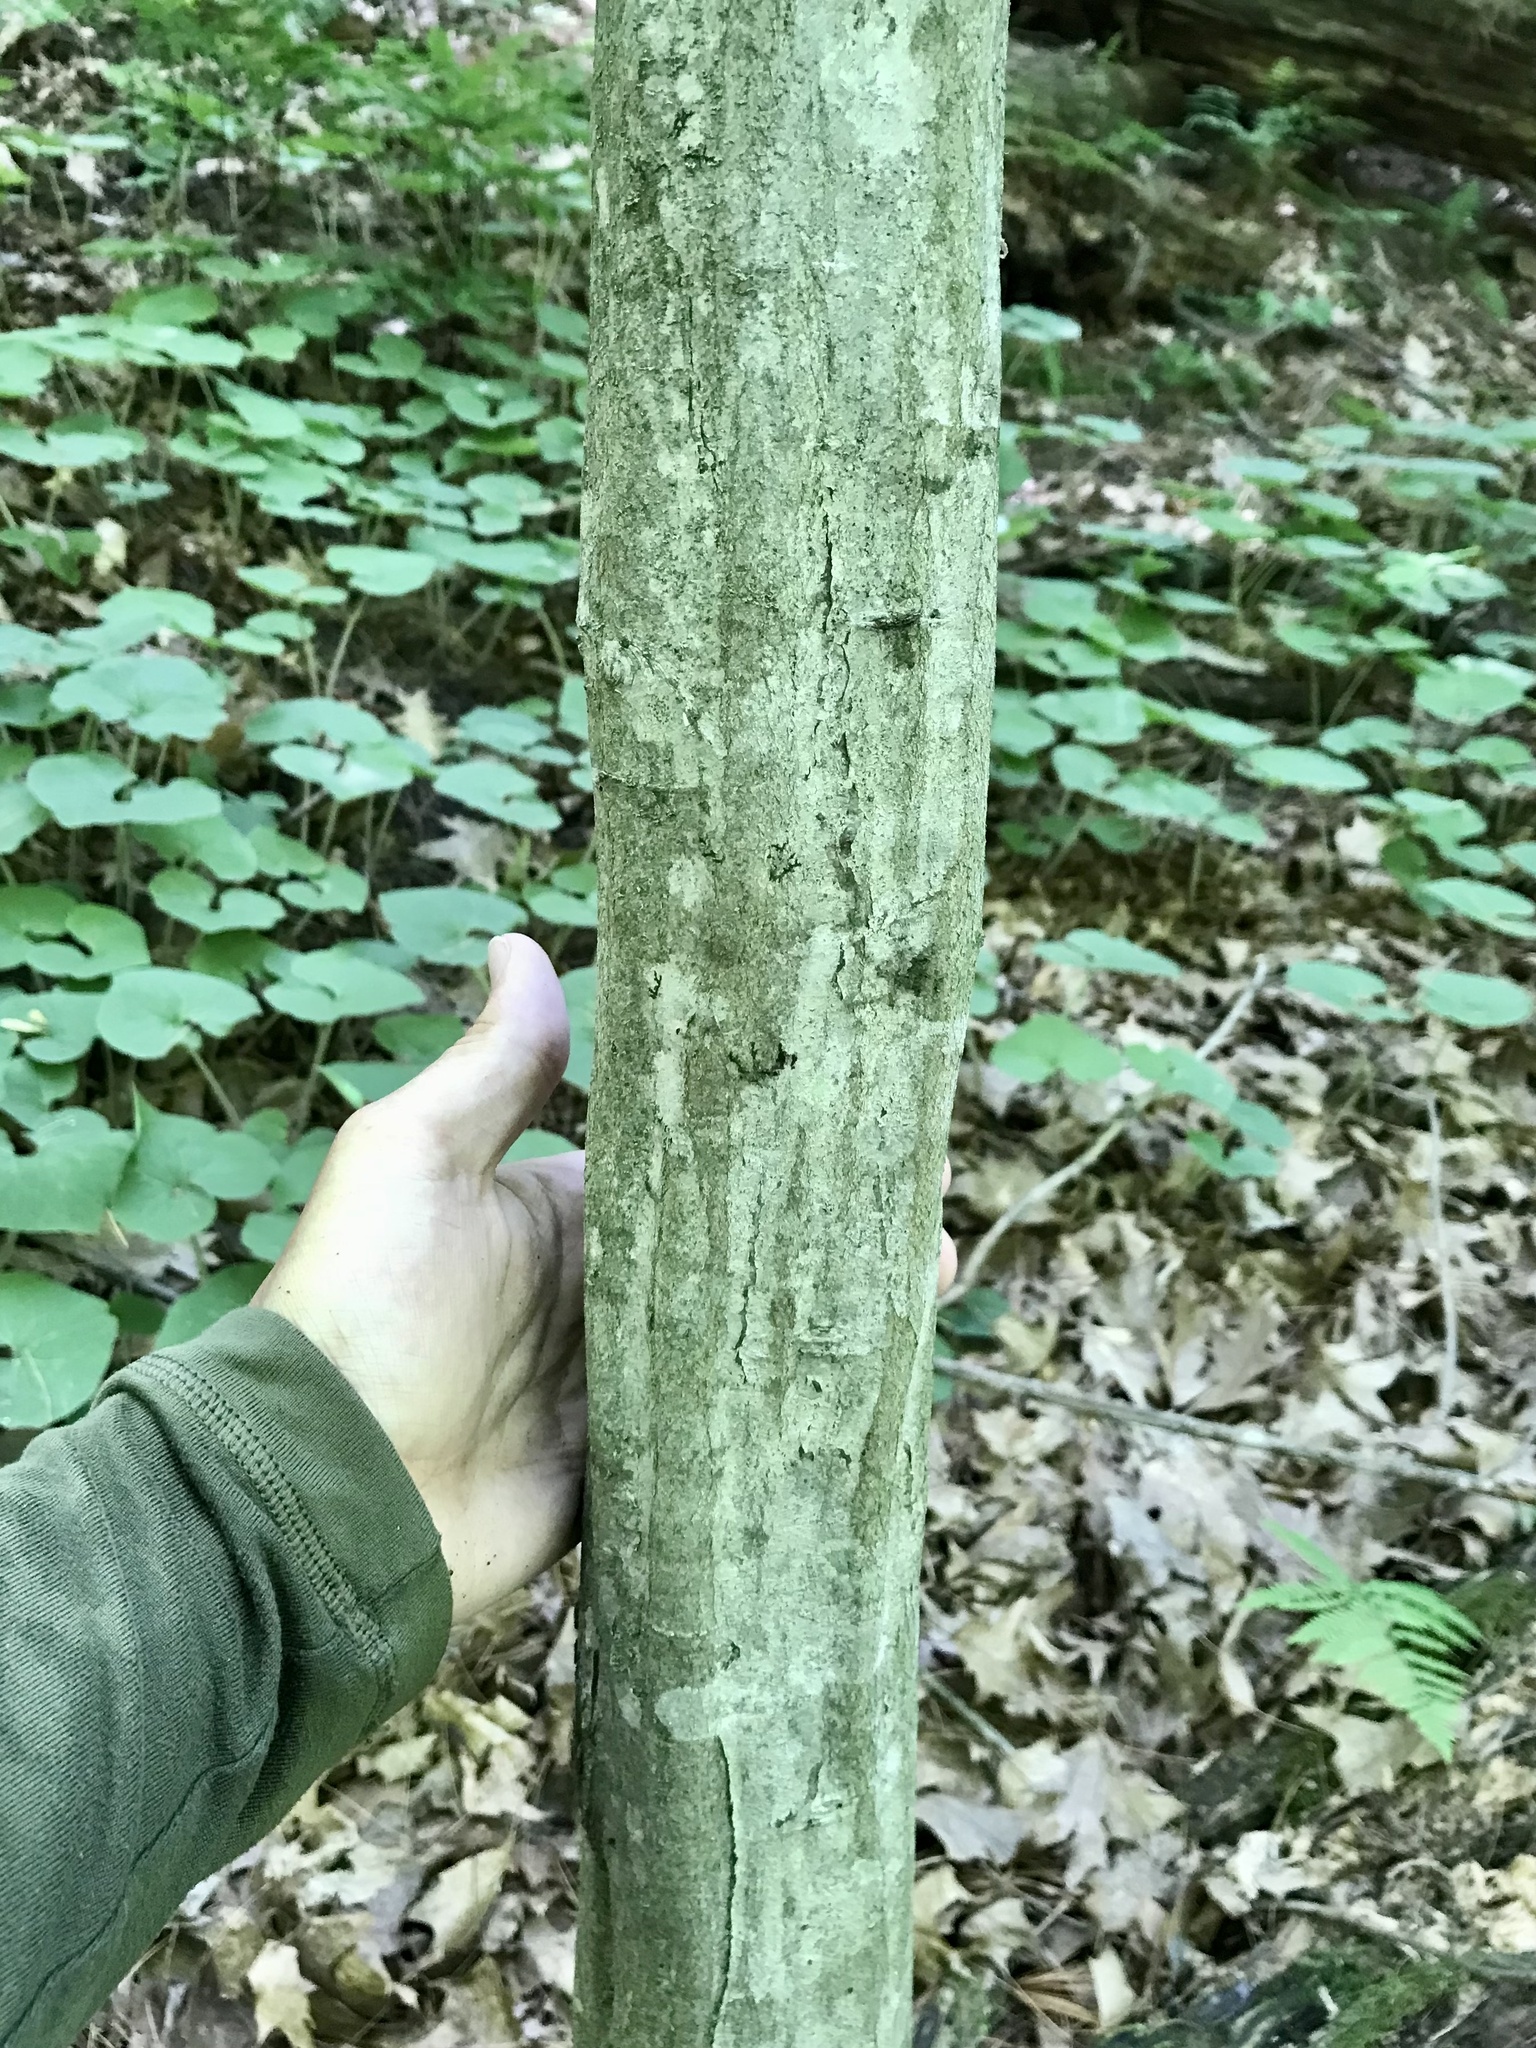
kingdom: Plantae
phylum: Tracheophyta
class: Magnoliopsida
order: Fagales
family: Betulaceae
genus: Carpinus
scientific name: Carpinus caroliniana
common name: American hornbeam
